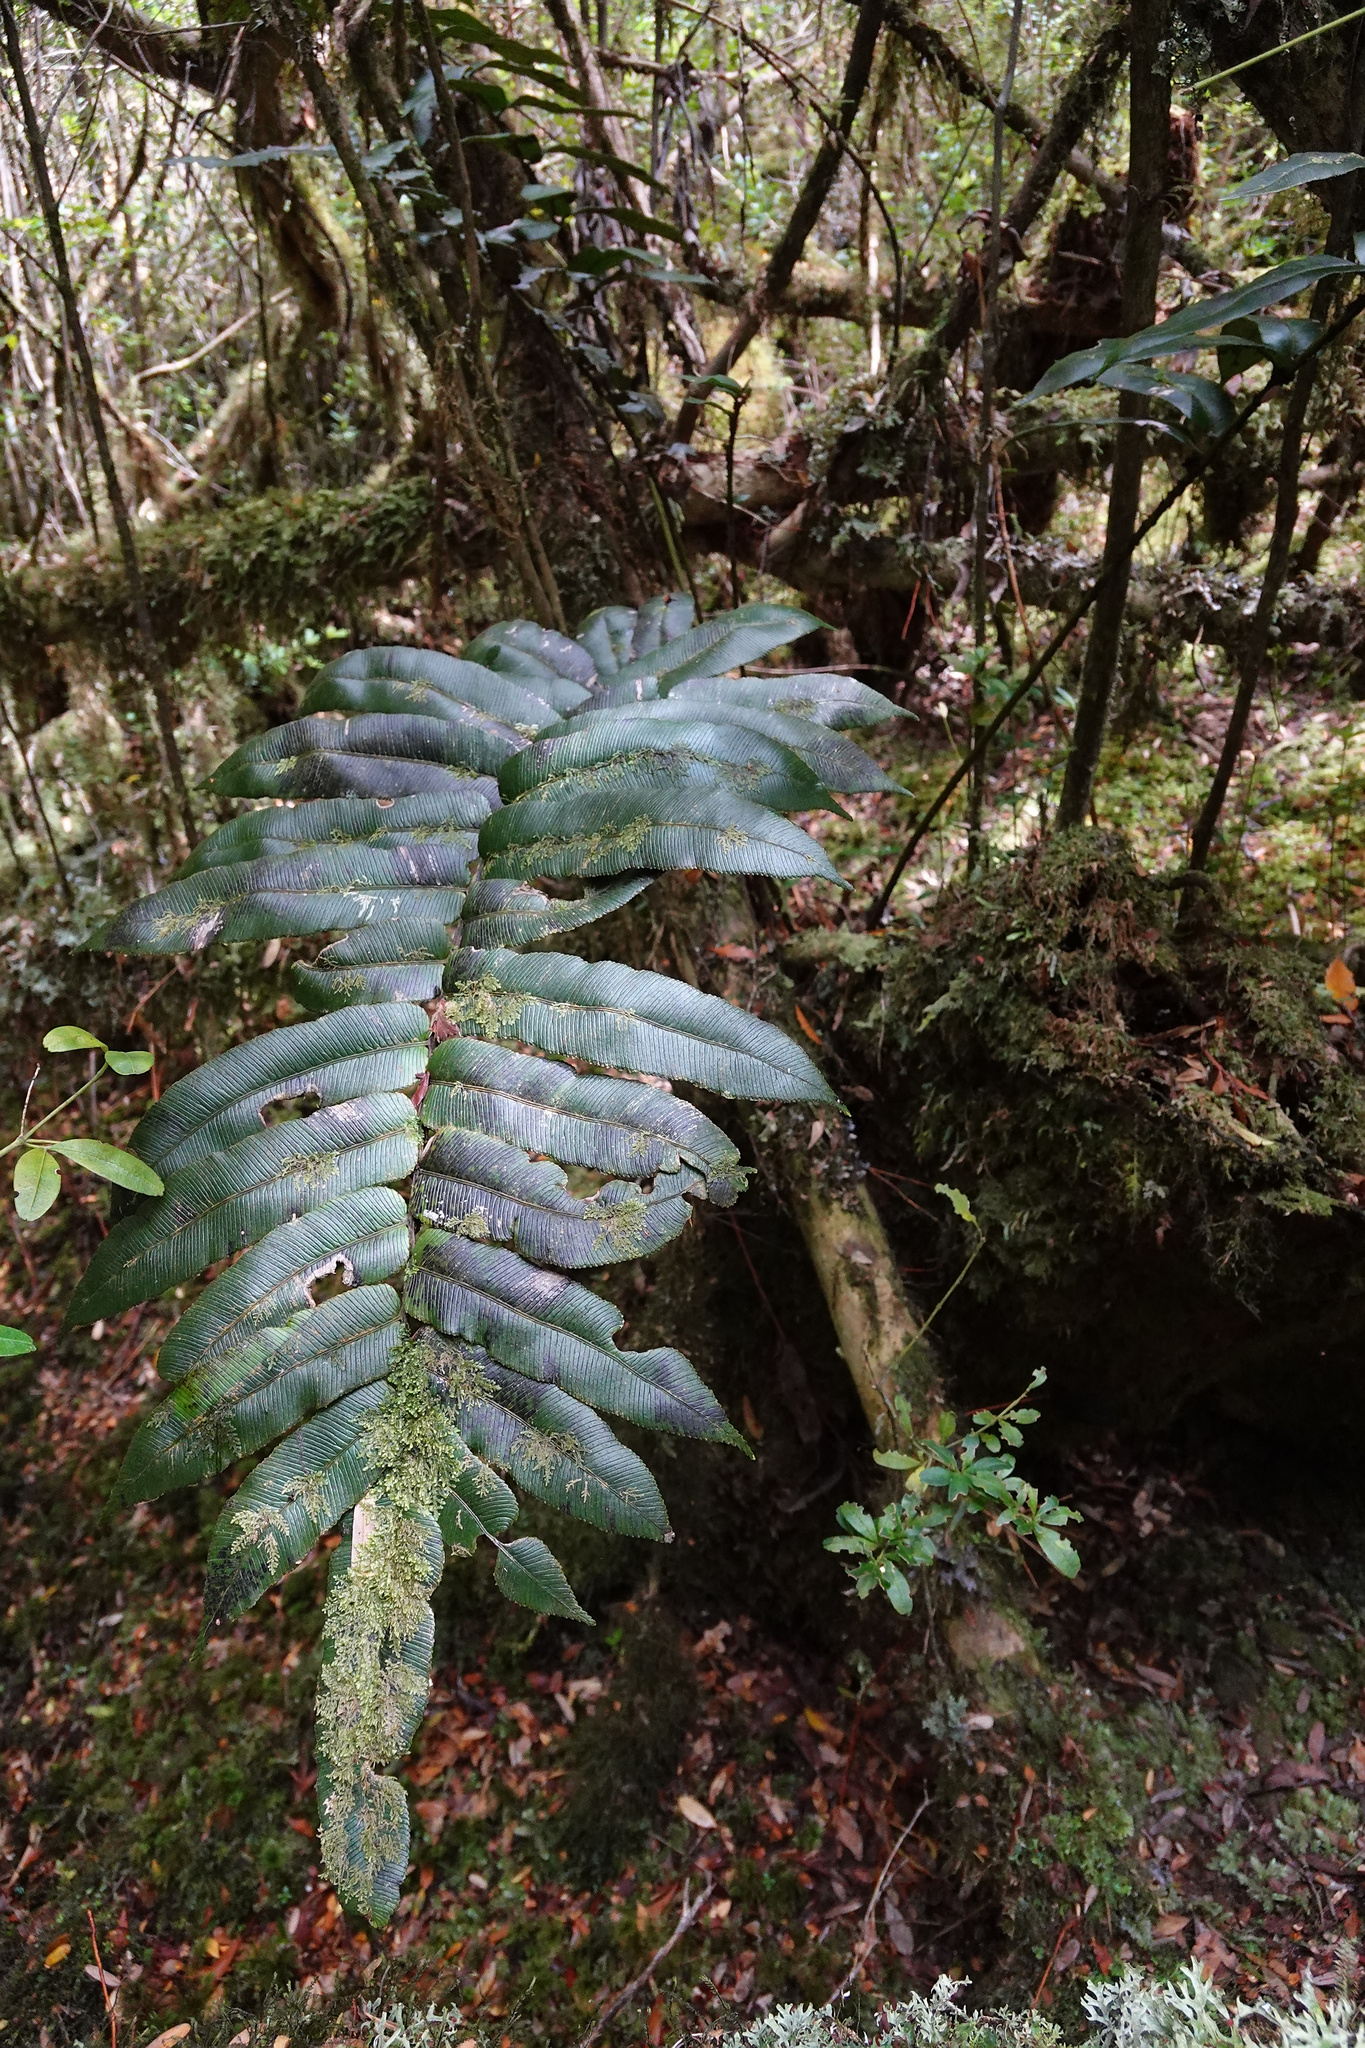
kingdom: Plantae
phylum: Tracheophyta
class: Polypodiopsida
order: Polypodiales
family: Blechnaceae
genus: Parablechnum
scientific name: Parablechnum wattsii
